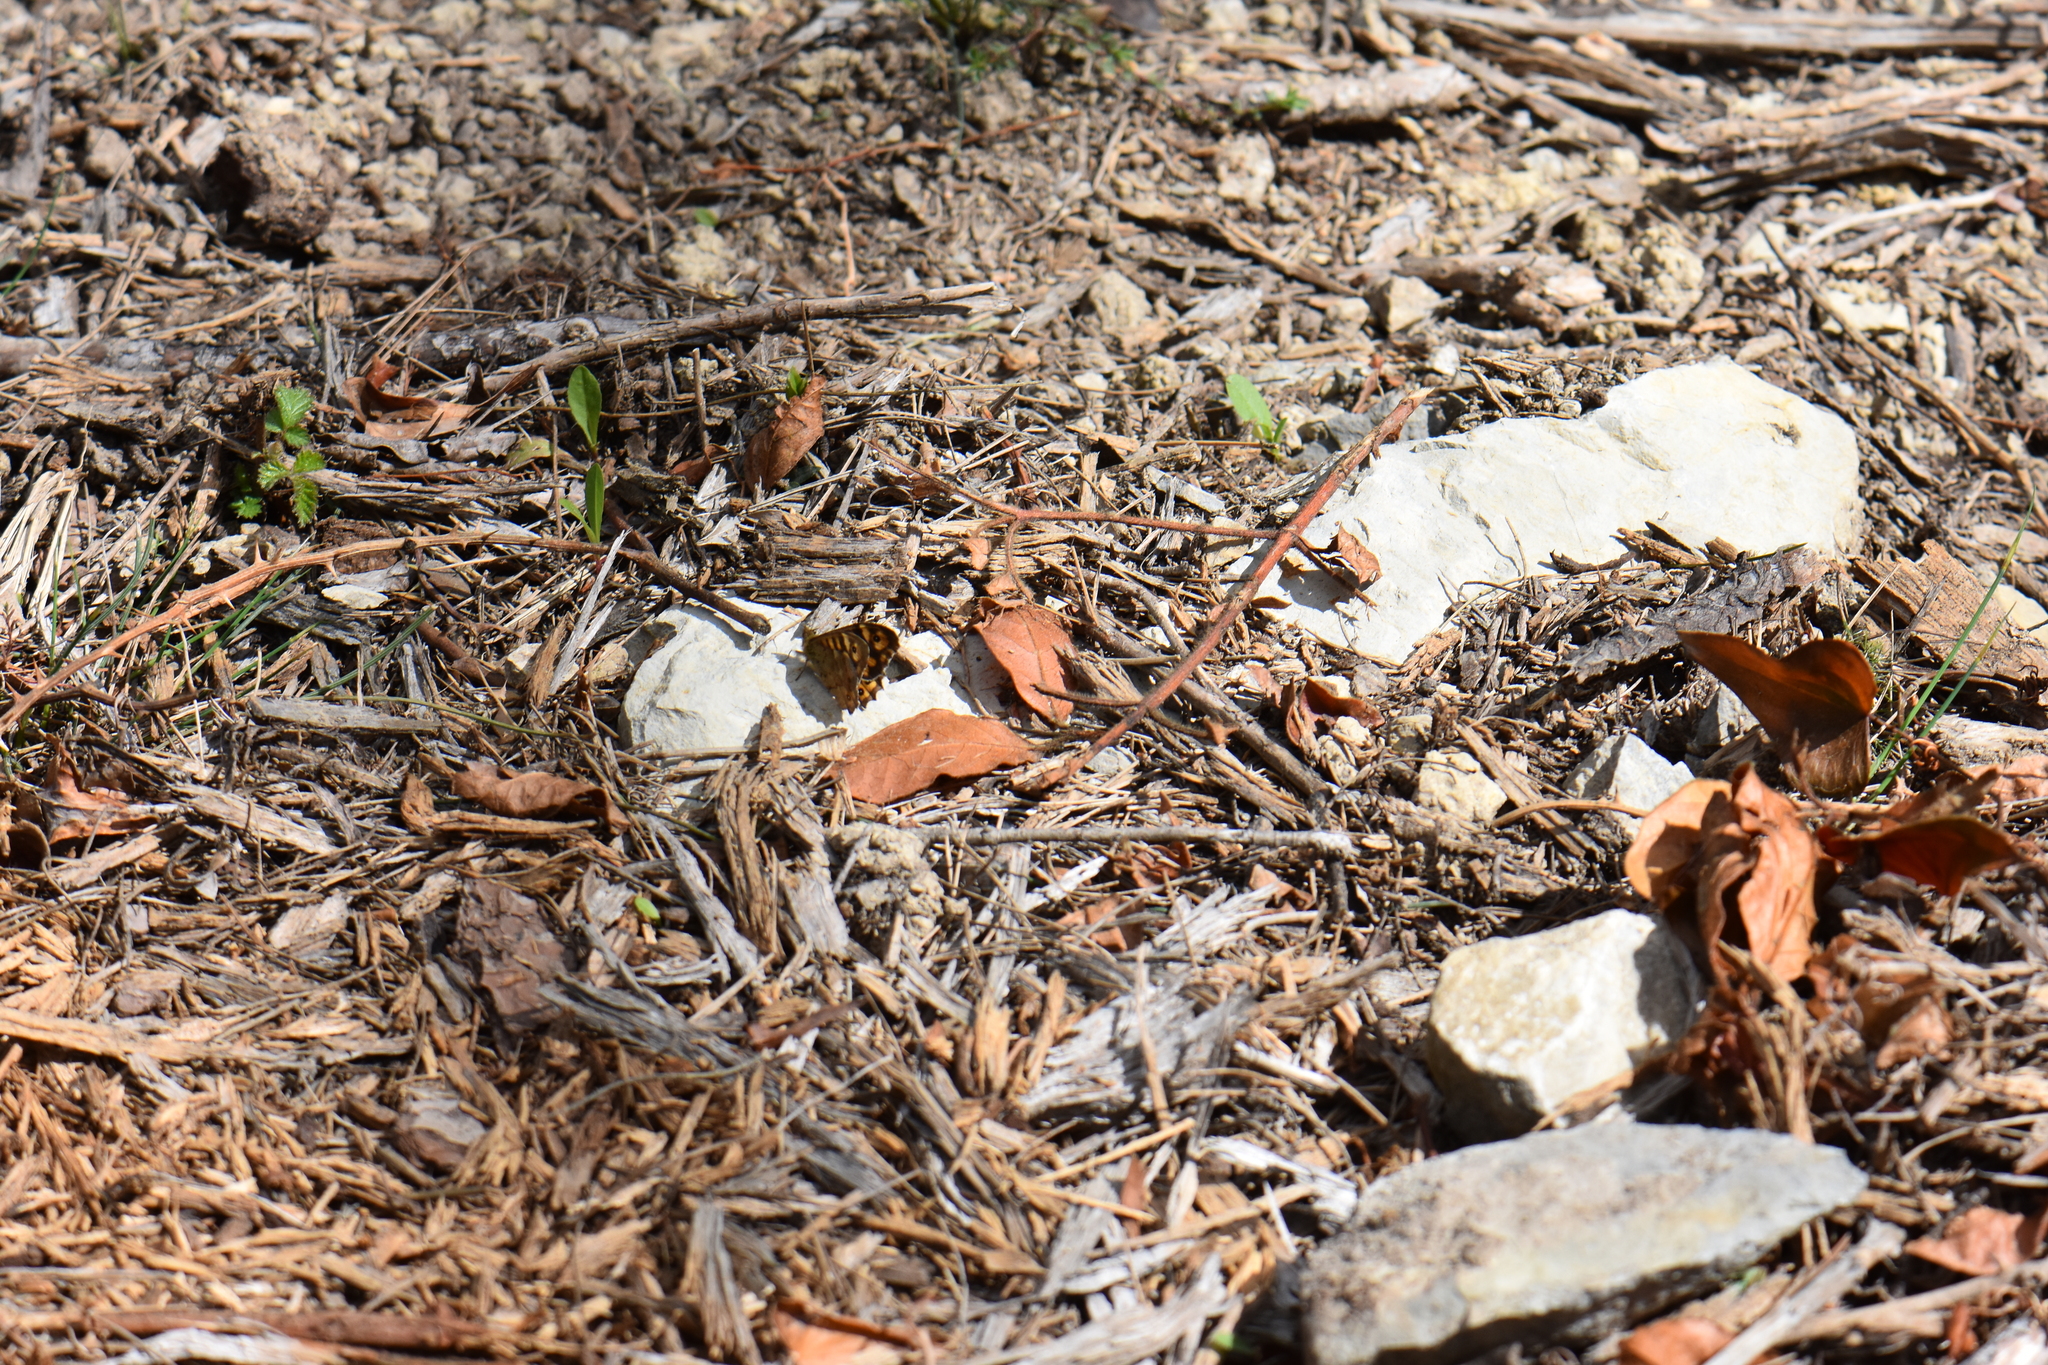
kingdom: Animalia
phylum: Arthropoda
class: Insecta
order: Lepidoptera
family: Nymphalidae
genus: Pararge
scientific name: Pararge aegeria
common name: Speckled wood
